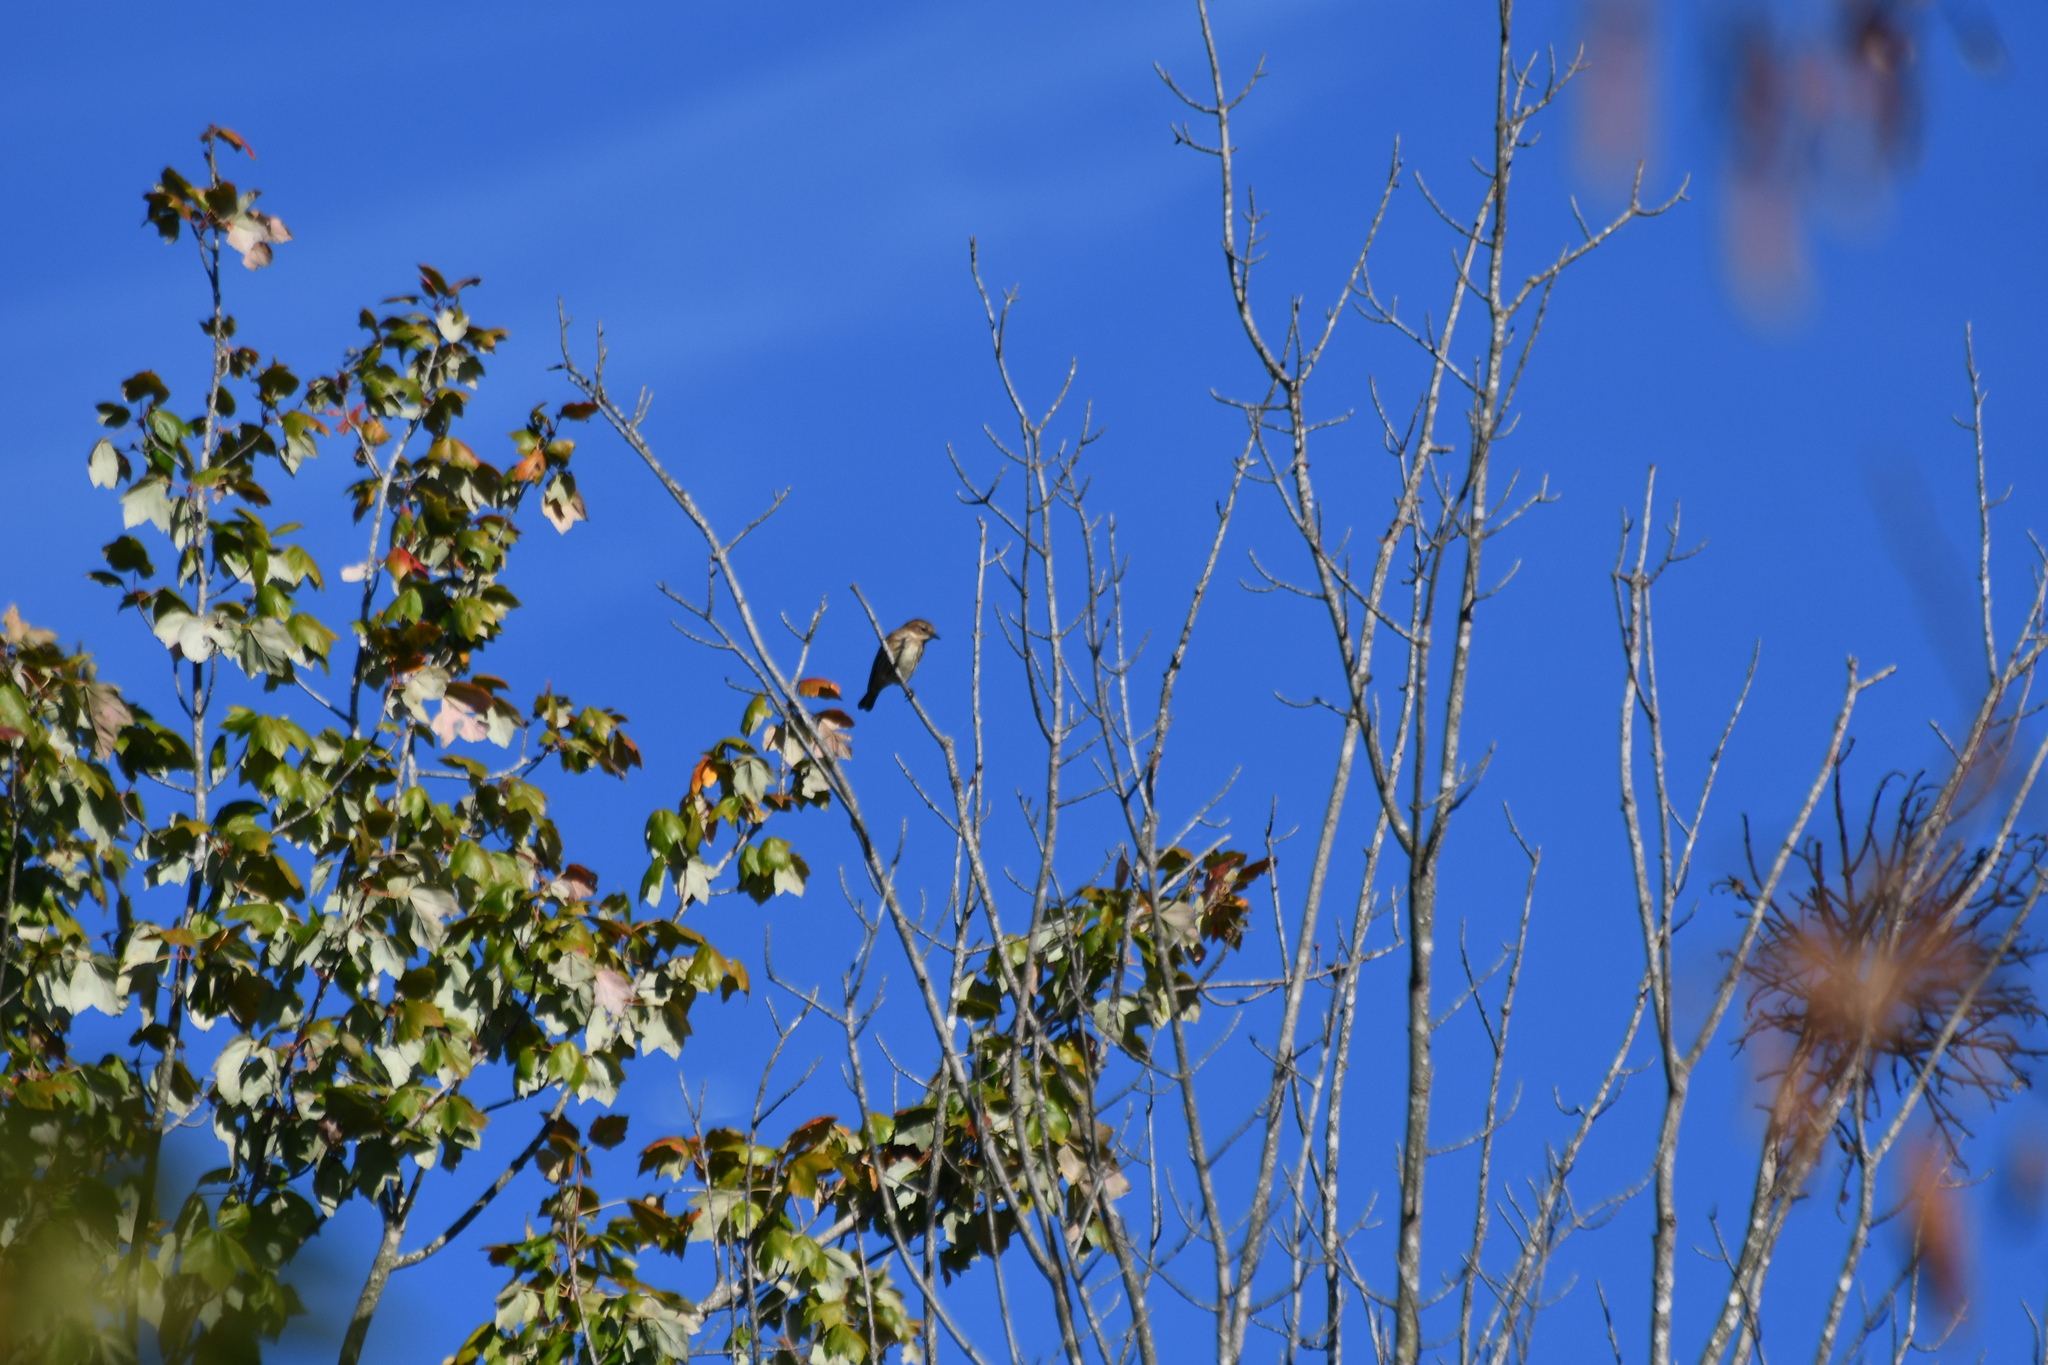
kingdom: Animalia
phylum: Chordata
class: Aves
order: Passeriformes
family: Parulidae
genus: Setophaga
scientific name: Setophaga coronata
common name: Myrtle warbler
